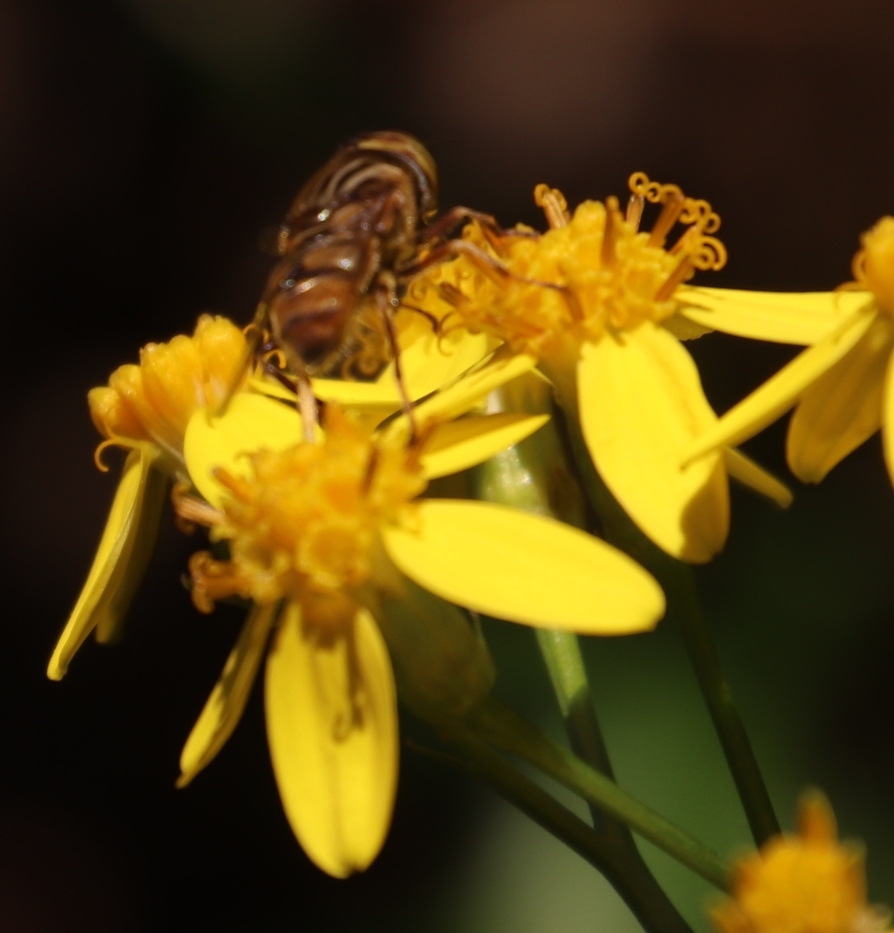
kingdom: Animalia
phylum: Arthropoda
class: Insecta
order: Diptera
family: Syrphidae
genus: Eristalinus
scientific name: Eristalinus barclayi
